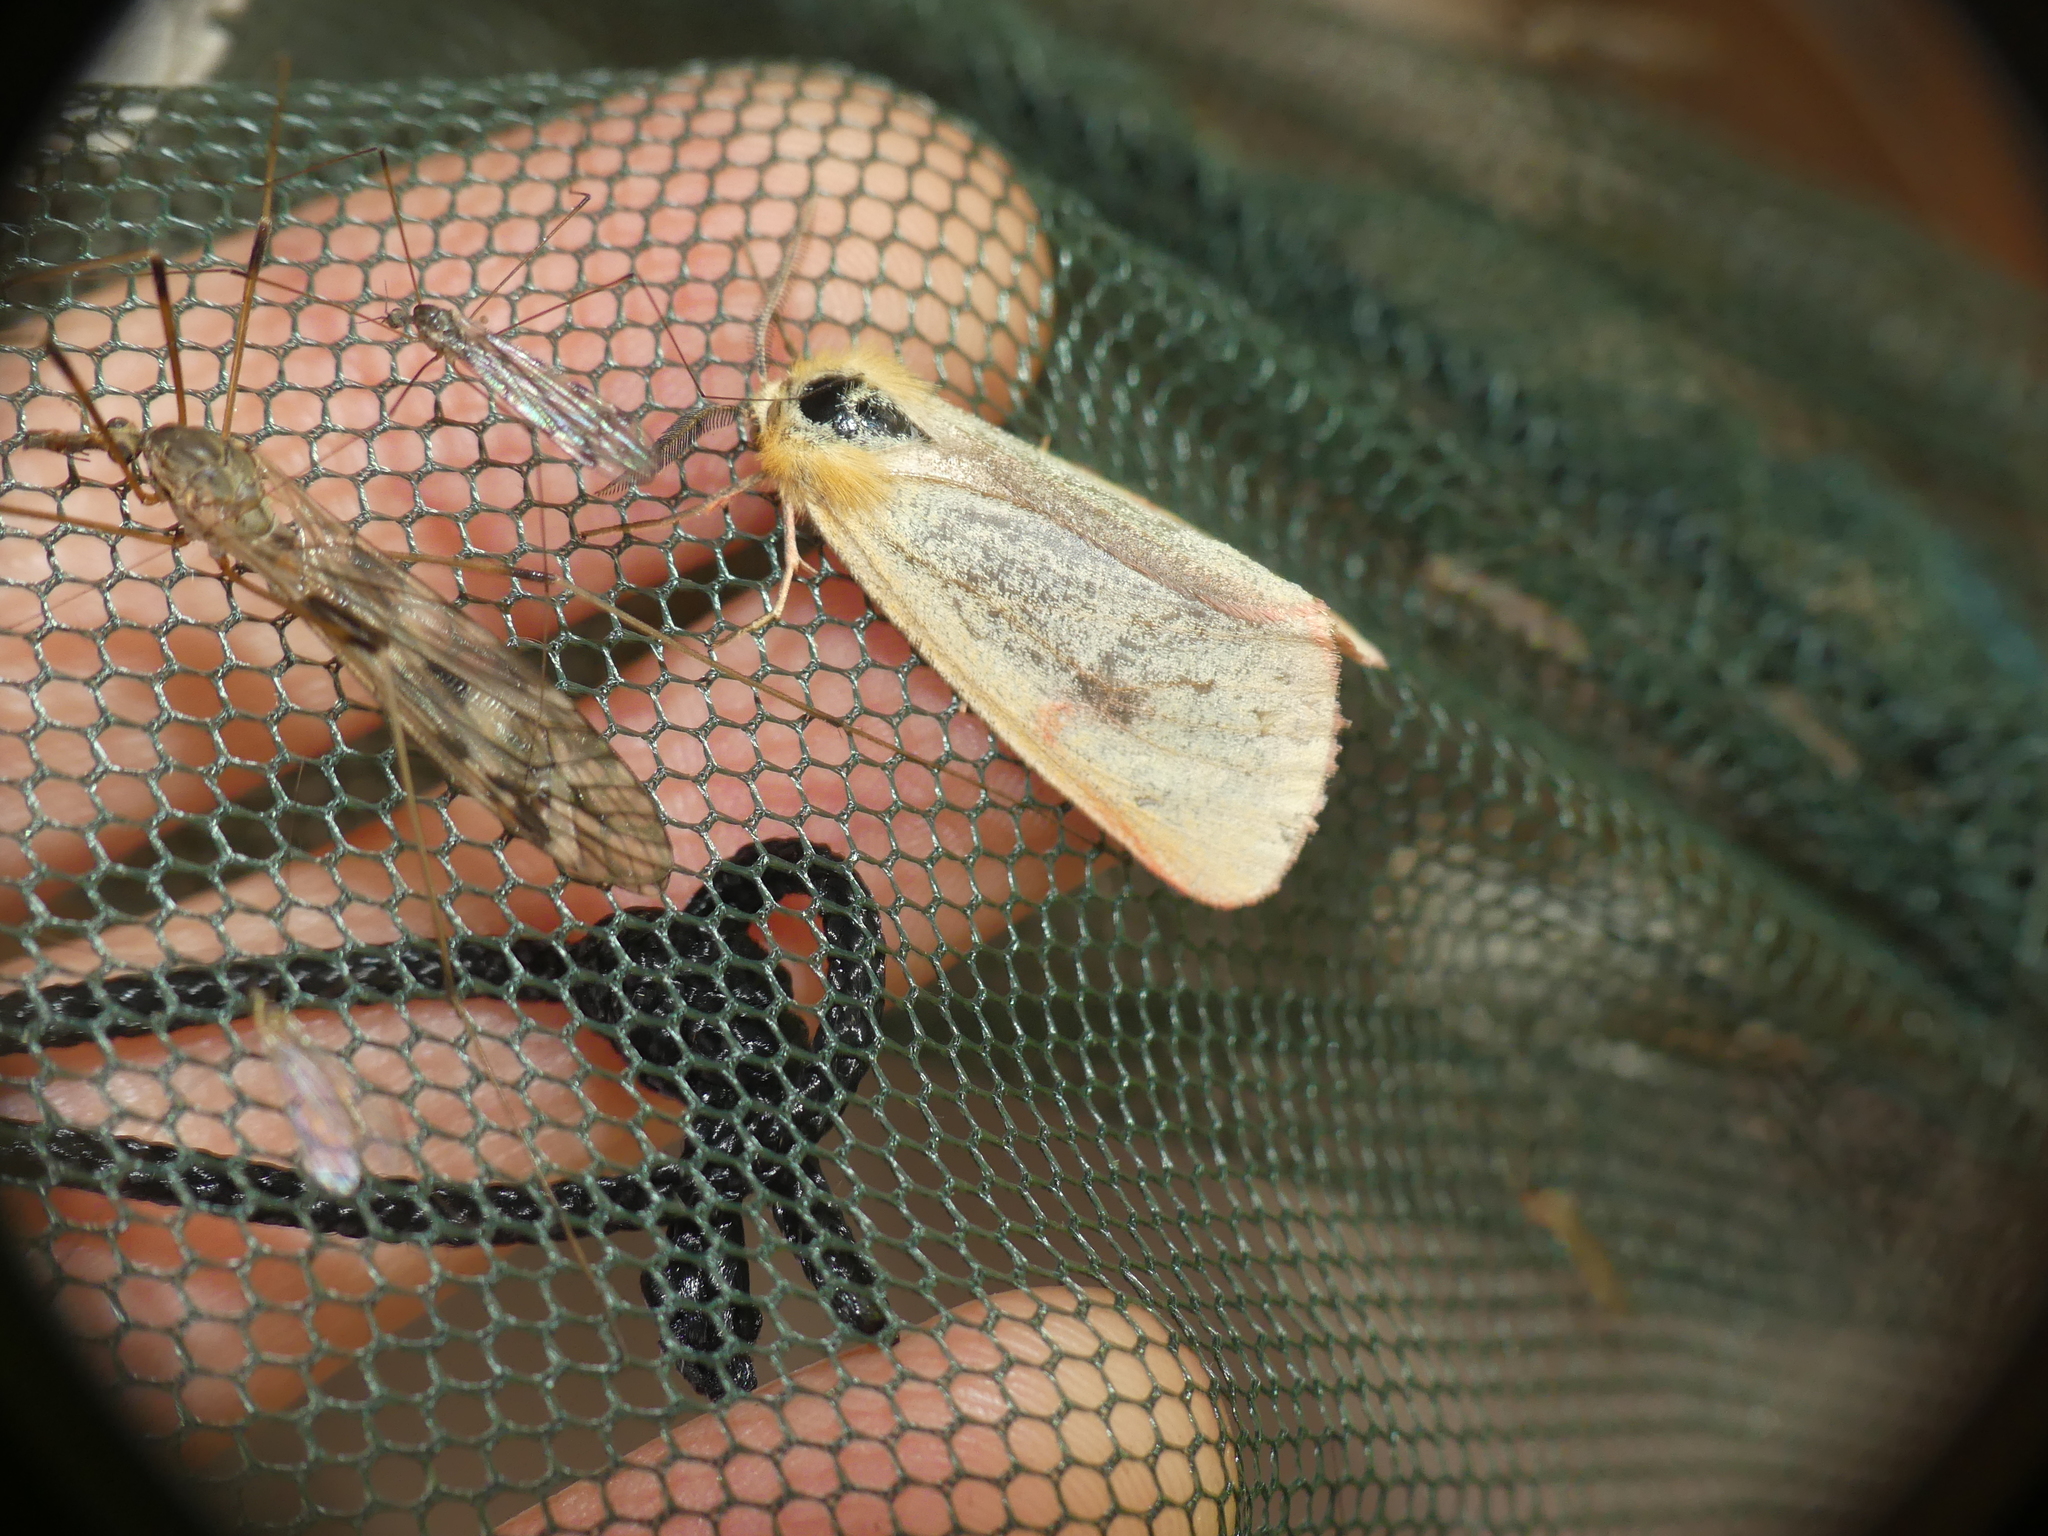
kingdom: Animalia
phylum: Arthropoda
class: Insecta
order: Lepidoptera
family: Erebidae
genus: Diacrisia
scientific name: Diacrisia sannio
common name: Clouded buff
